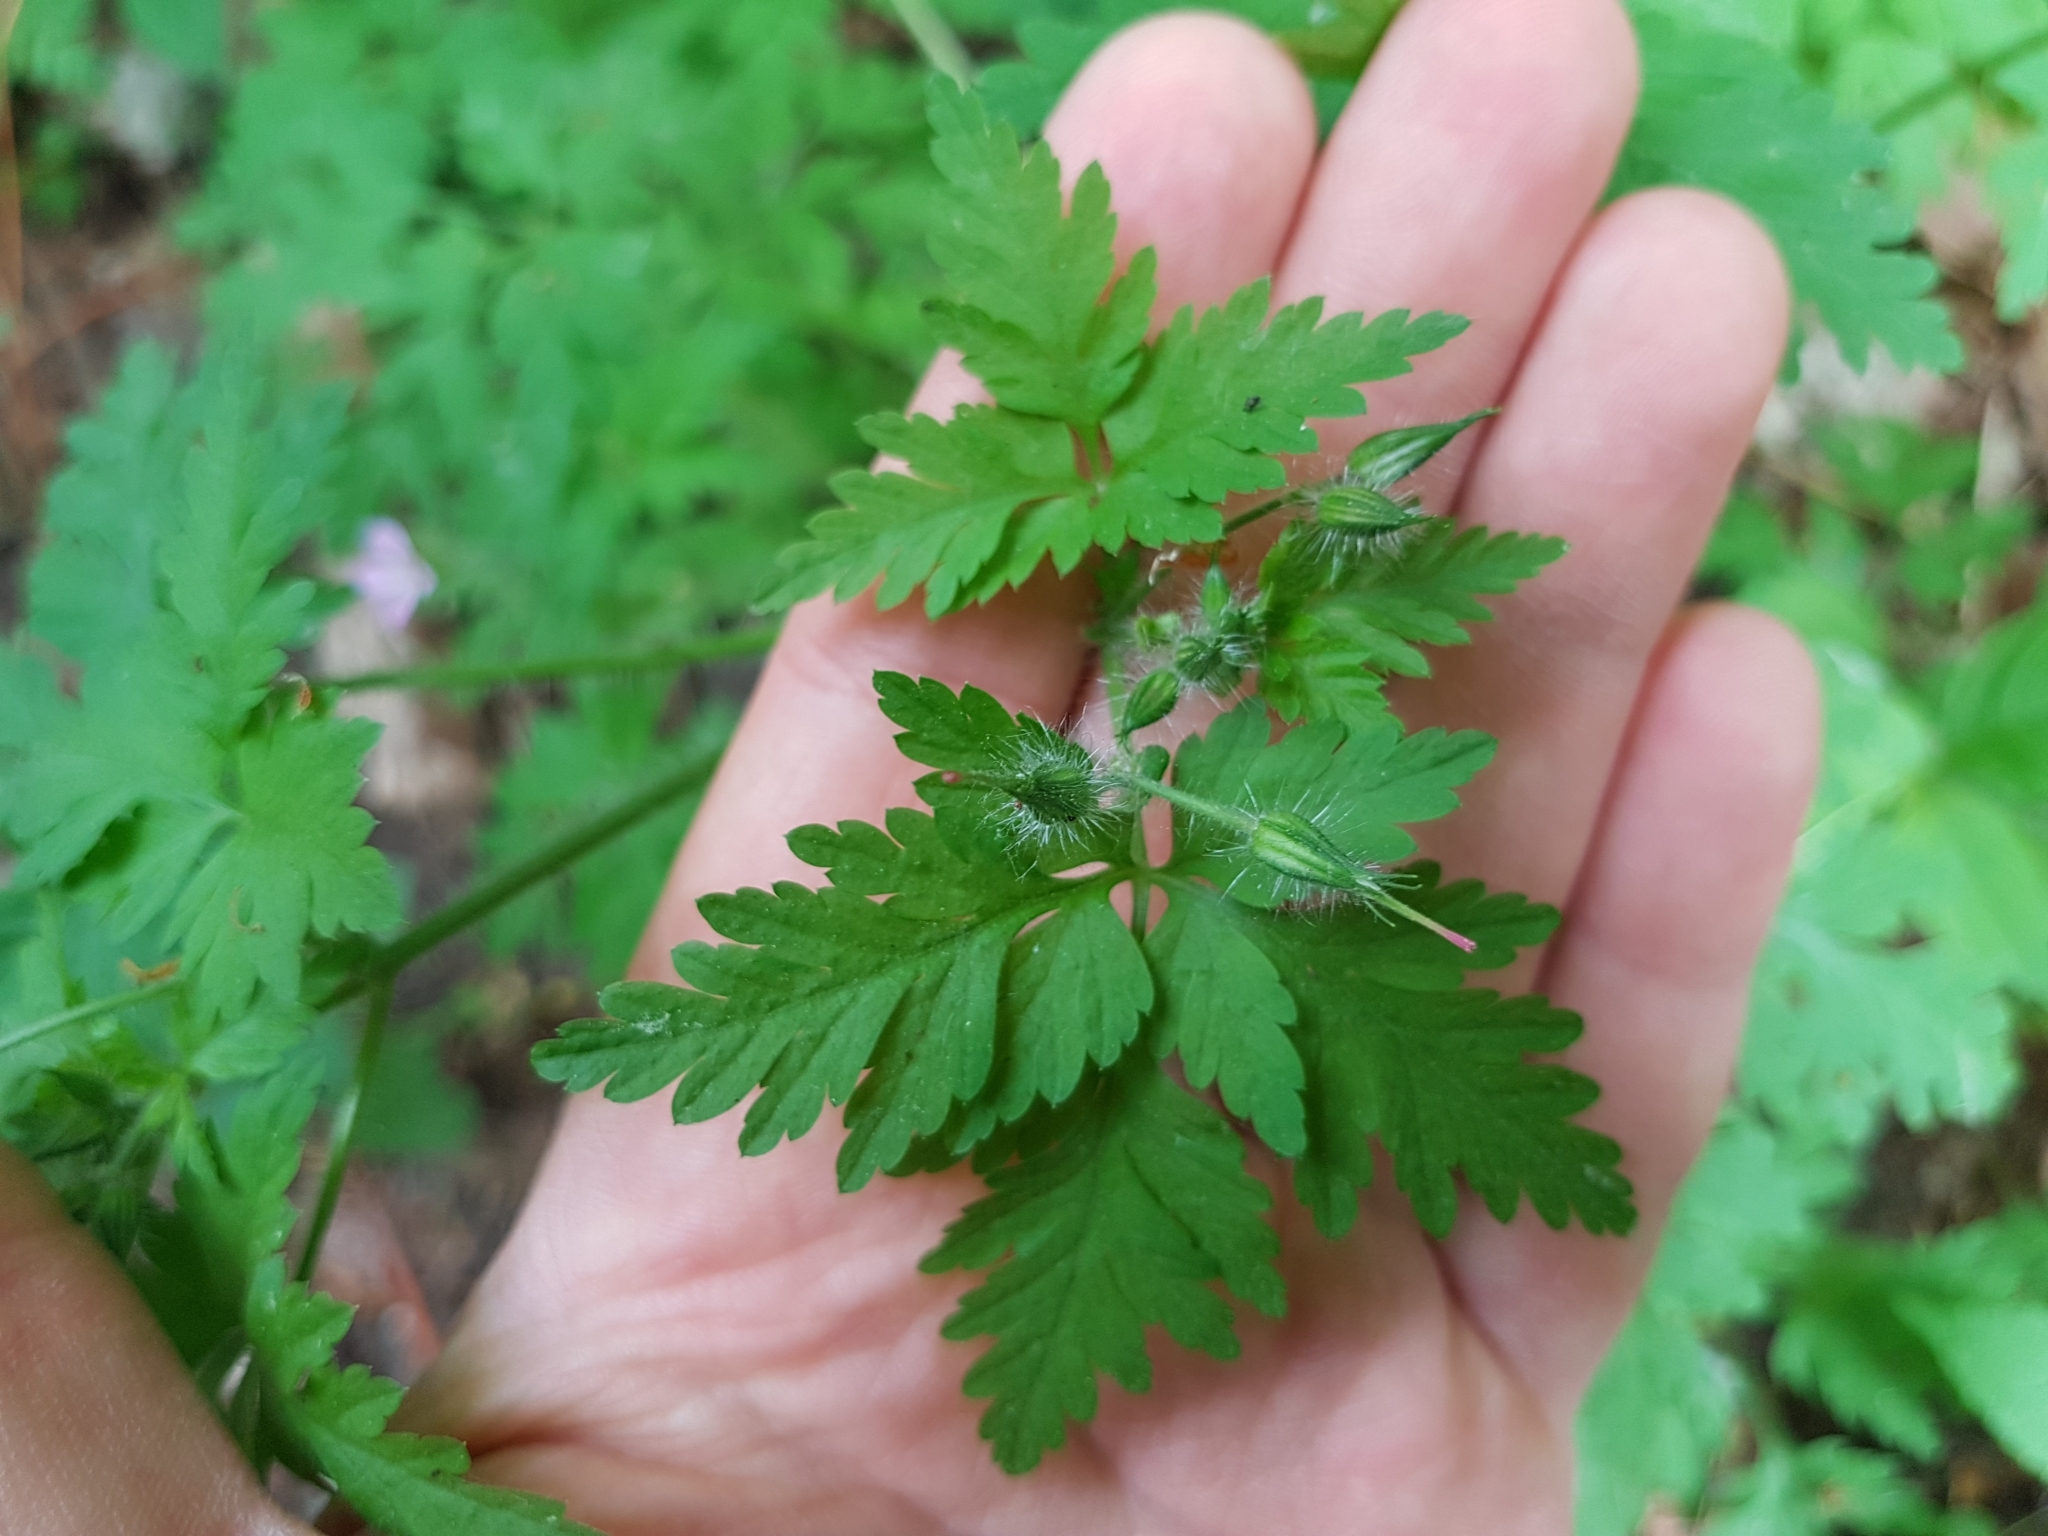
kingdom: Plantae
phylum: Tracheophyta
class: Magnoliopsida
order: Geraniales
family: Geraniaceae
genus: Geranium
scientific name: Geranium robertianum
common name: Herb-robert
